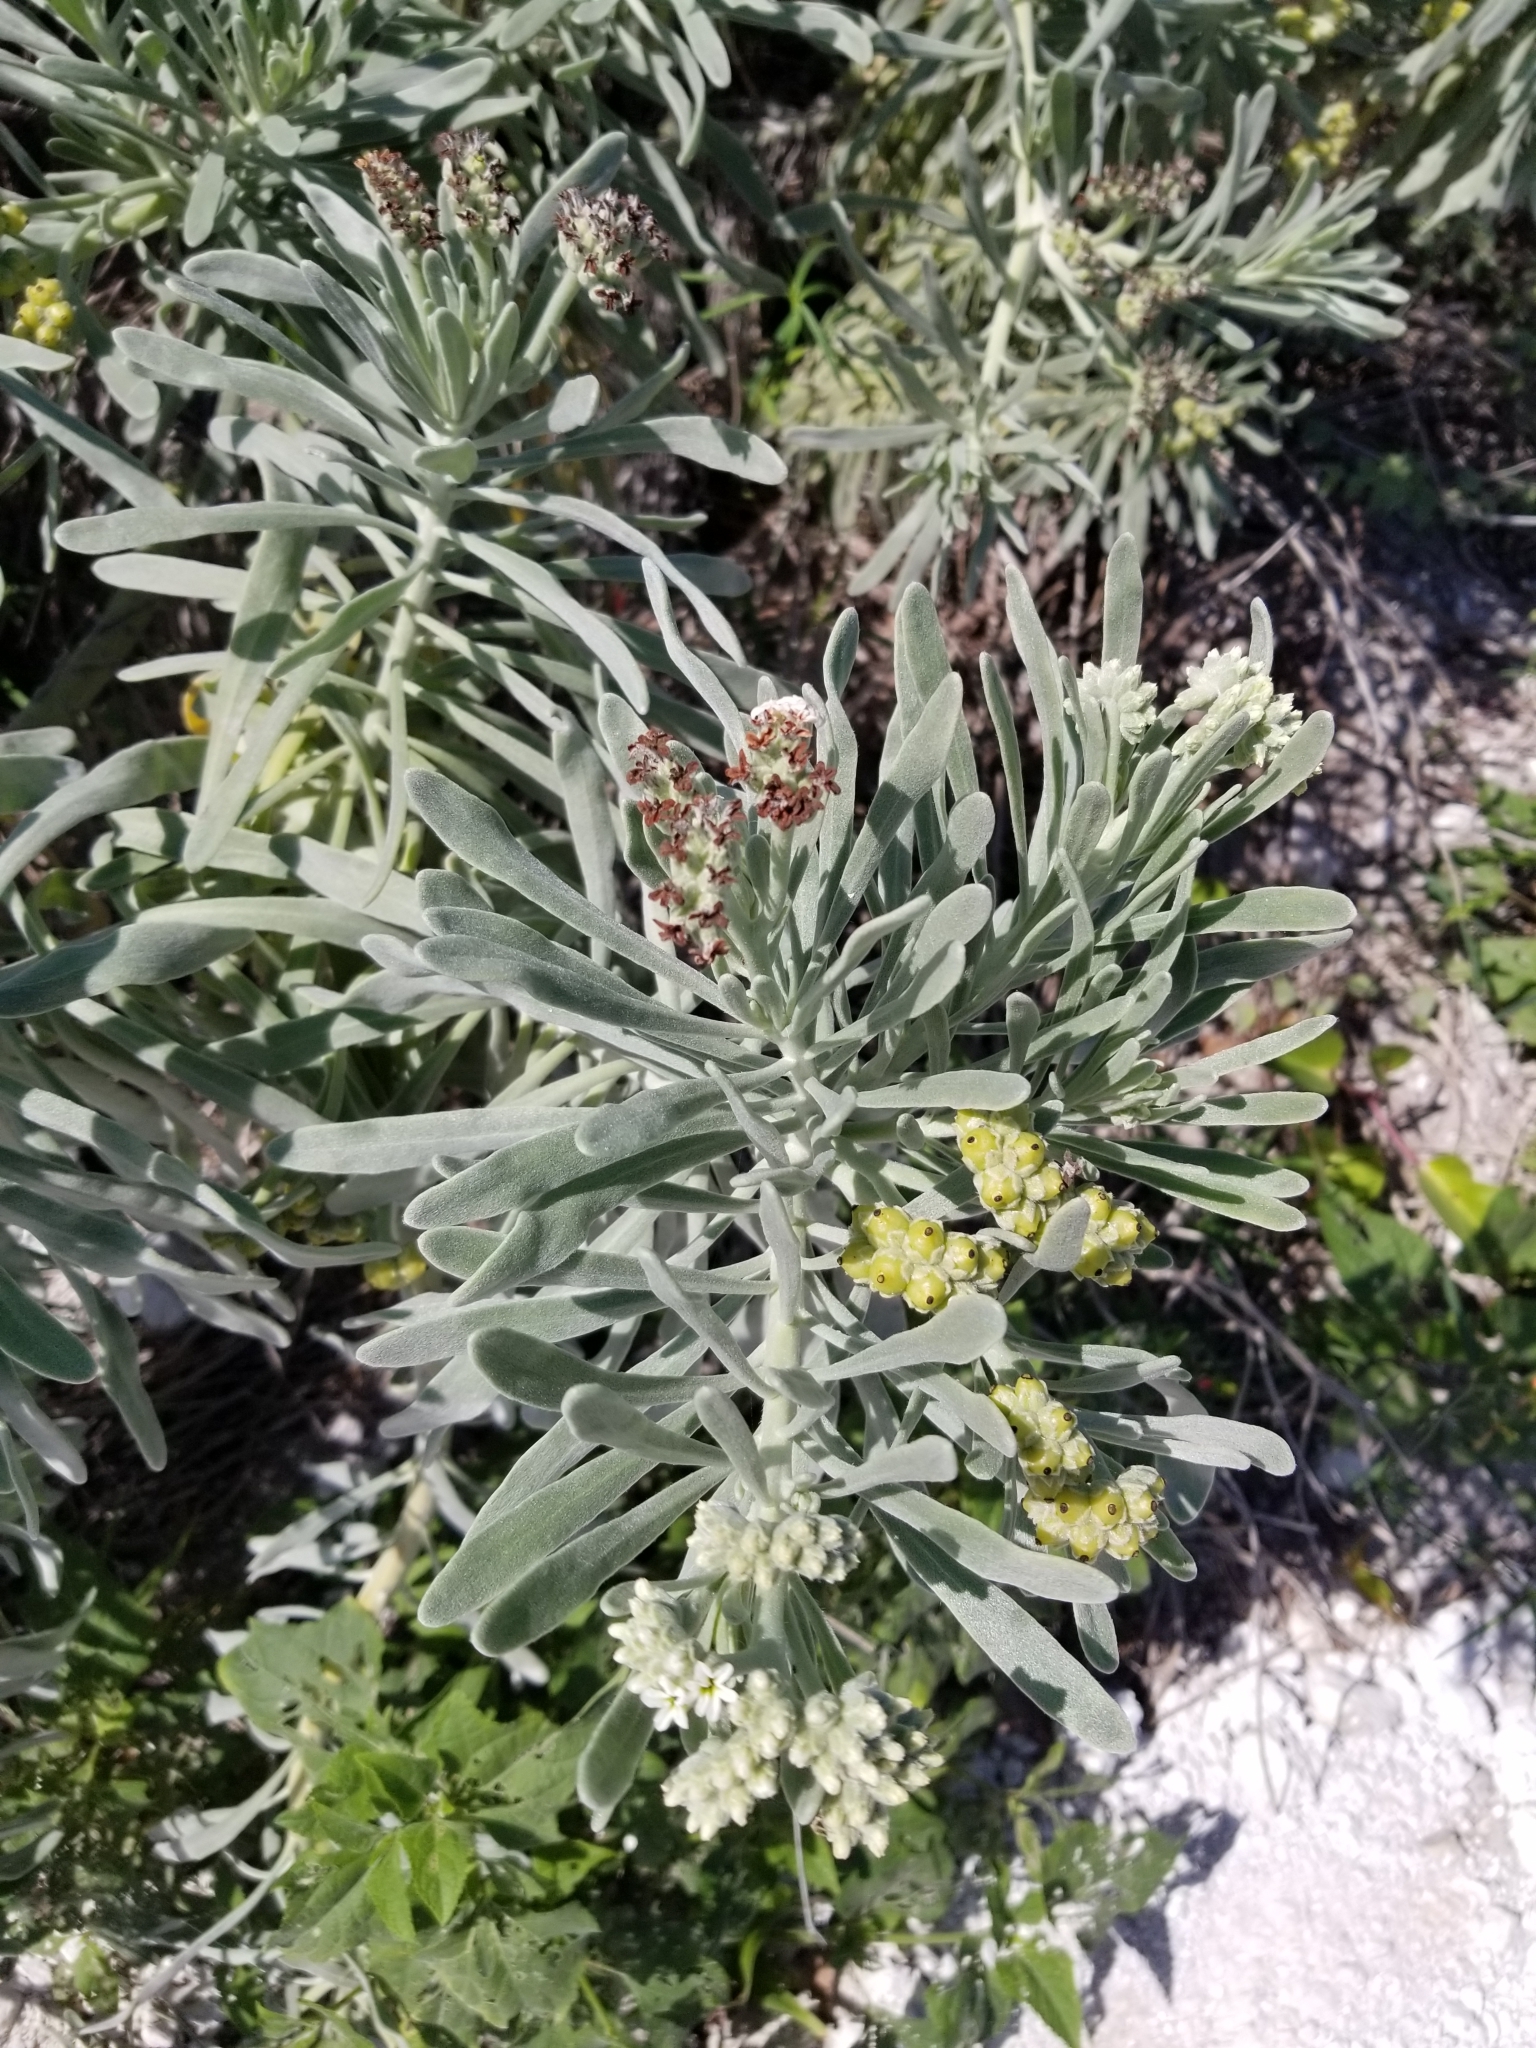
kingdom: Plantae
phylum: Tracheophyta
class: Magnoliopsida
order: Boraginales
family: Heliotropiaceae
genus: Tournefortia
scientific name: Tournefortia gnaphalodes
